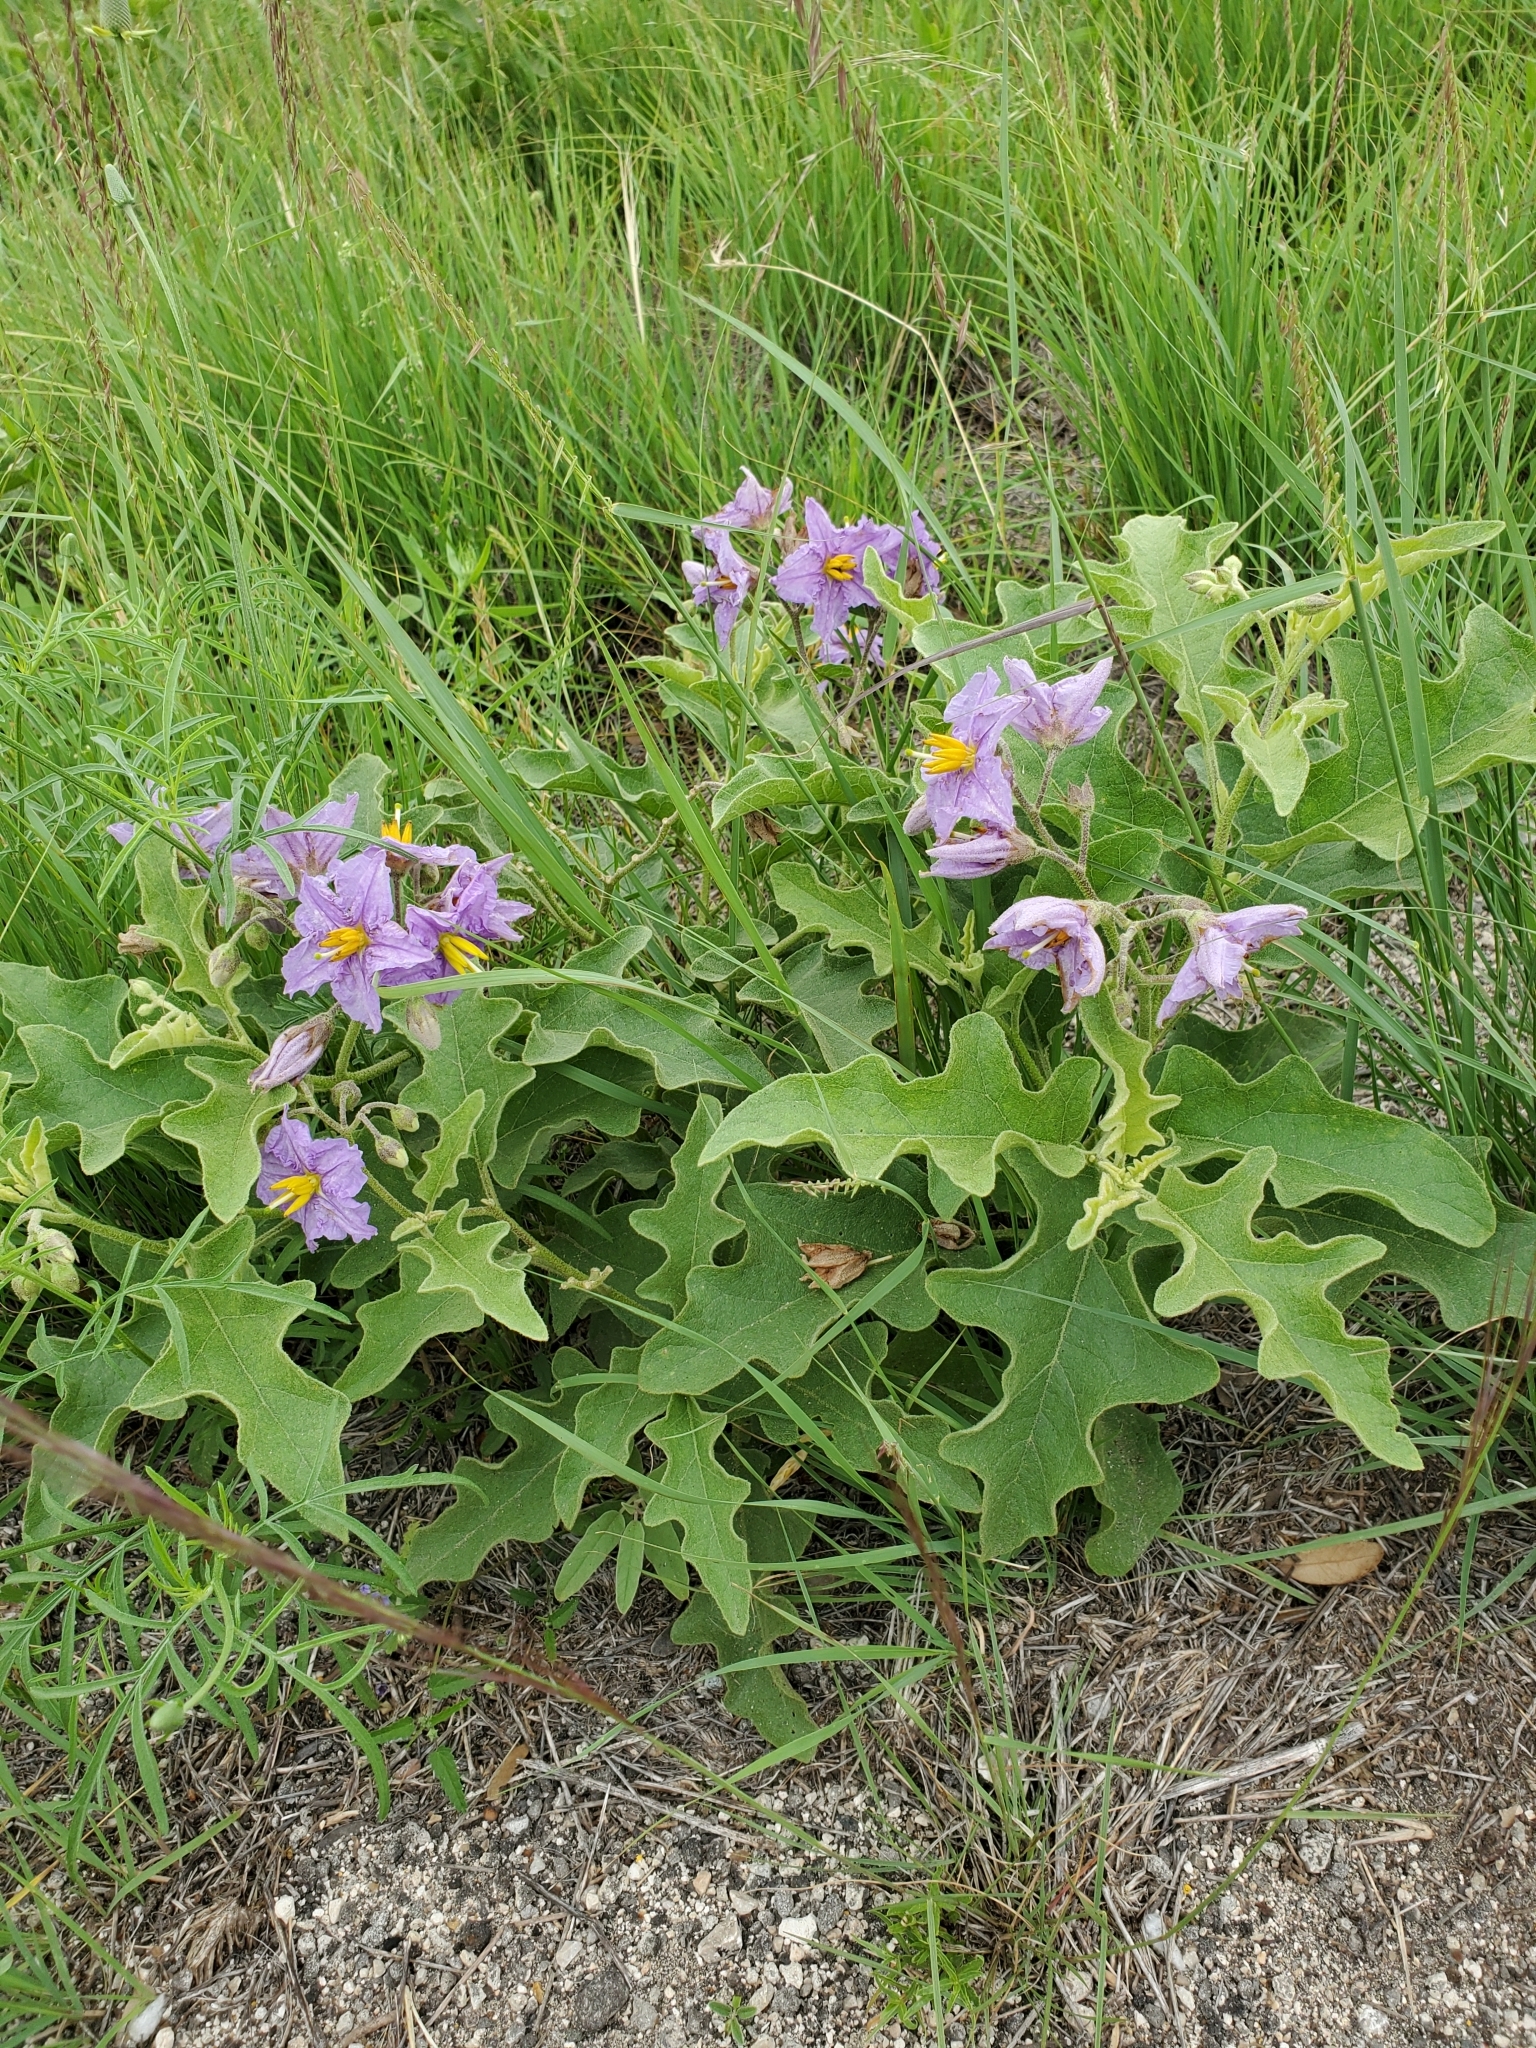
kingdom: Plantae
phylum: Tracheophyta
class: Magnoliopsida
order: Solanales
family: Solanaceae
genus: Solanum
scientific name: Solanum dimidiatum
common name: Carolina horse-nettle
